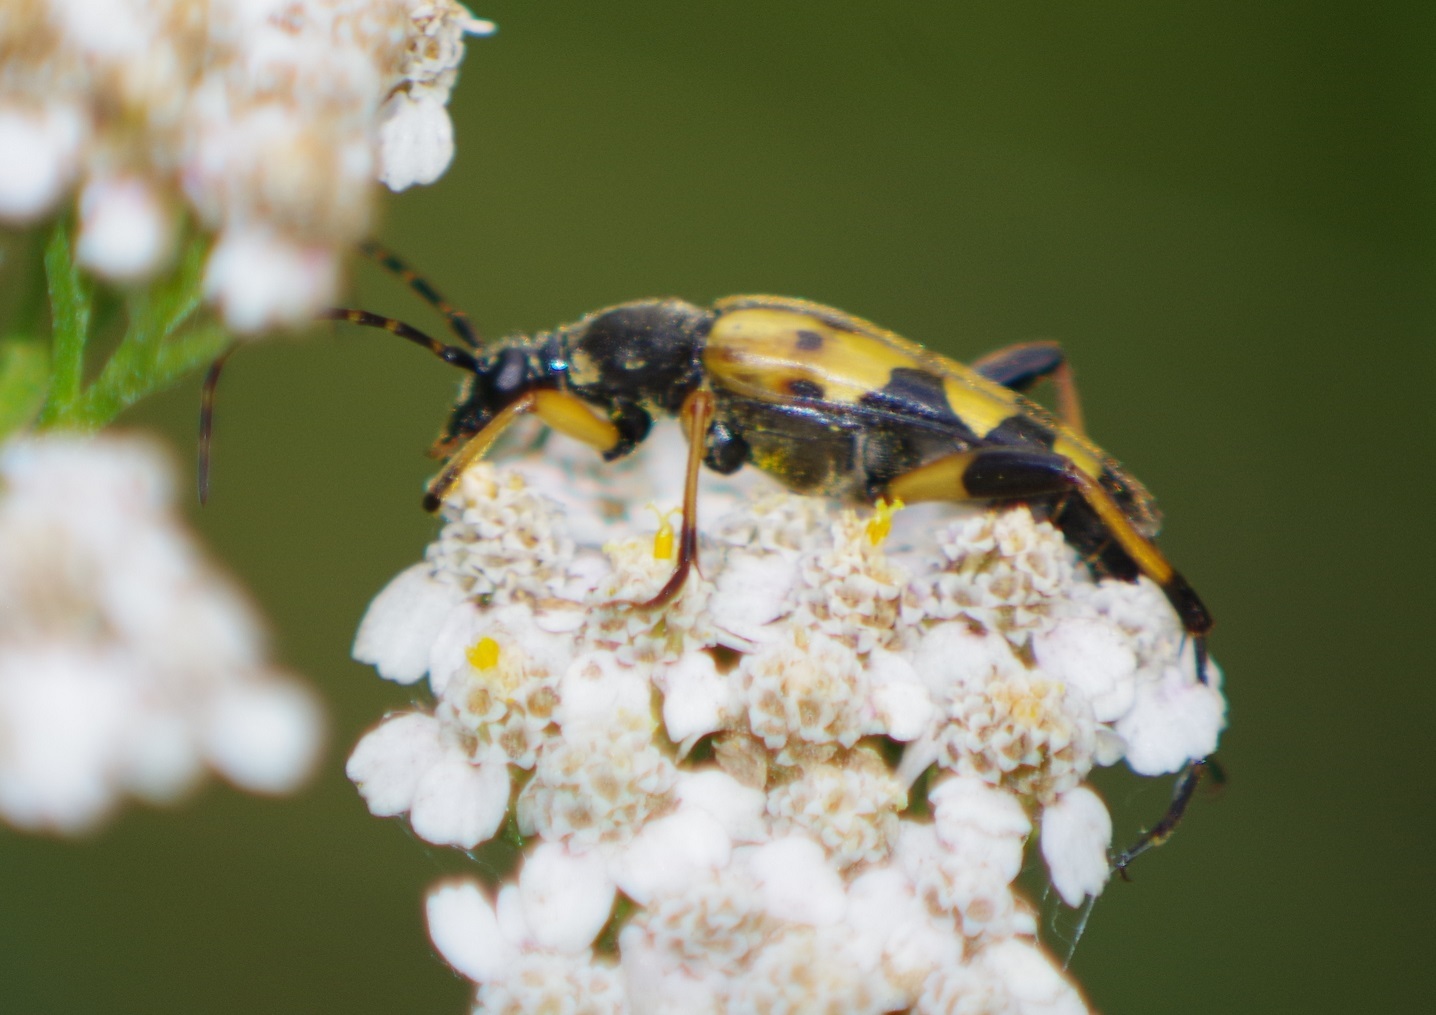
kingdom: Animalia
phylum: Arthropoda
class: Insecta
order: Coleoptera
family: Cerambycidae
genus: Rutpela
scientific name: Rutpela maculata
